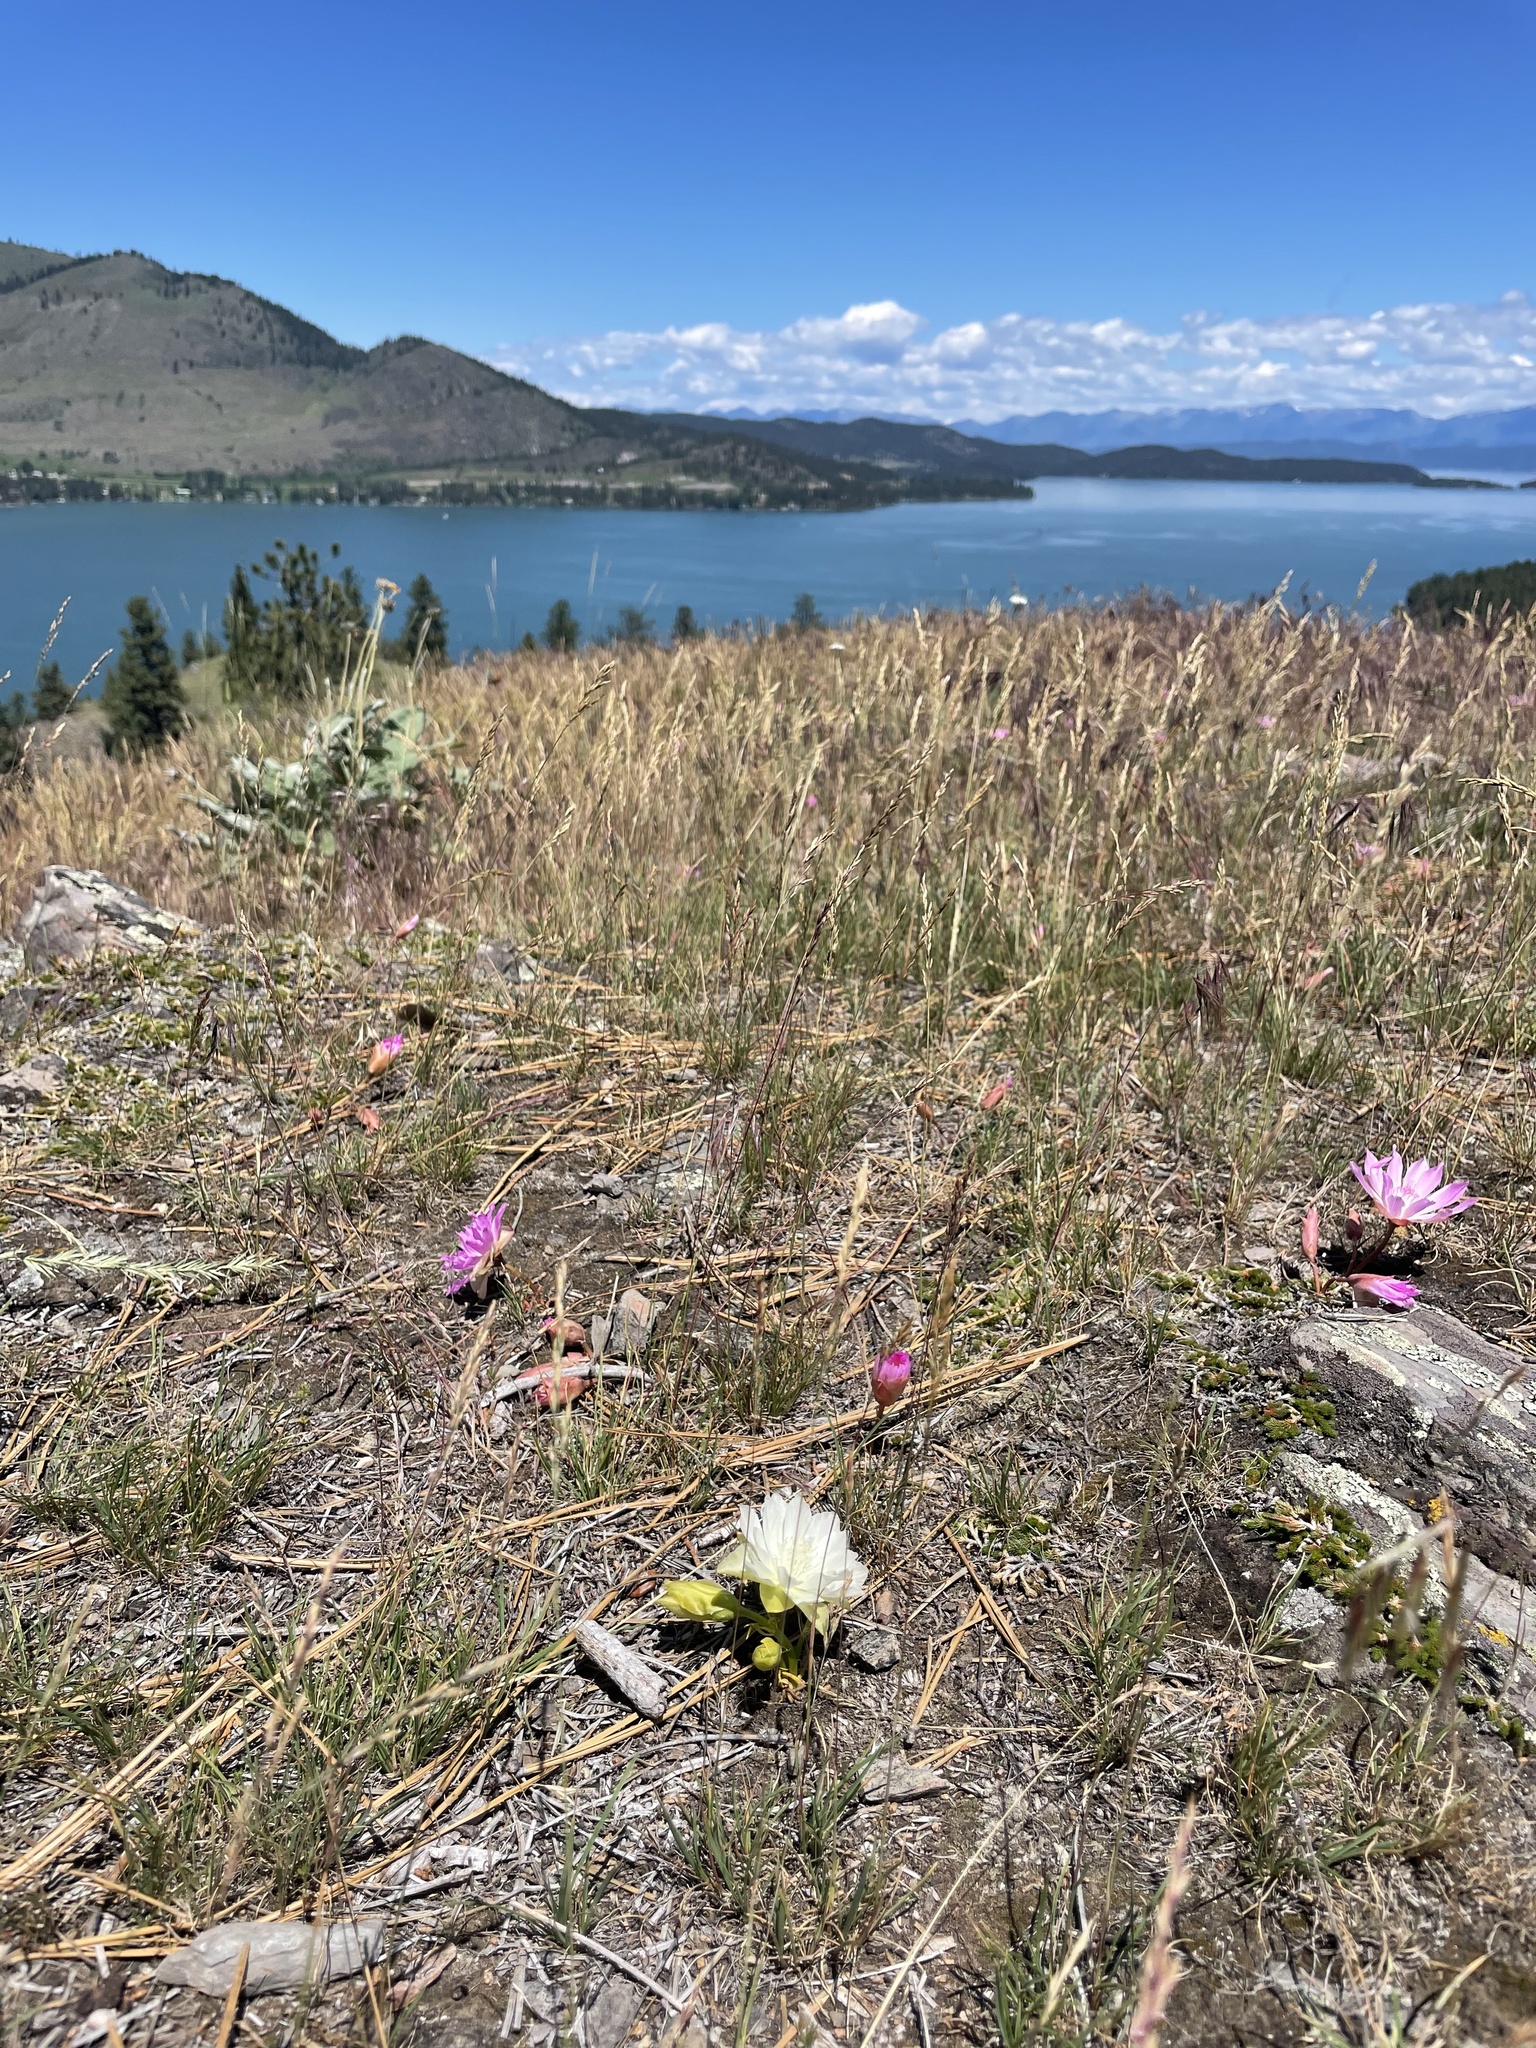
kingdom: Plantae
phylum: Tracheophyta
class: Magnoliopsida
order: Caryophyllales
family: Montiaceae
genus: Lewisia
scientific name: Lewisia rediviva
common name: Bitter-root
